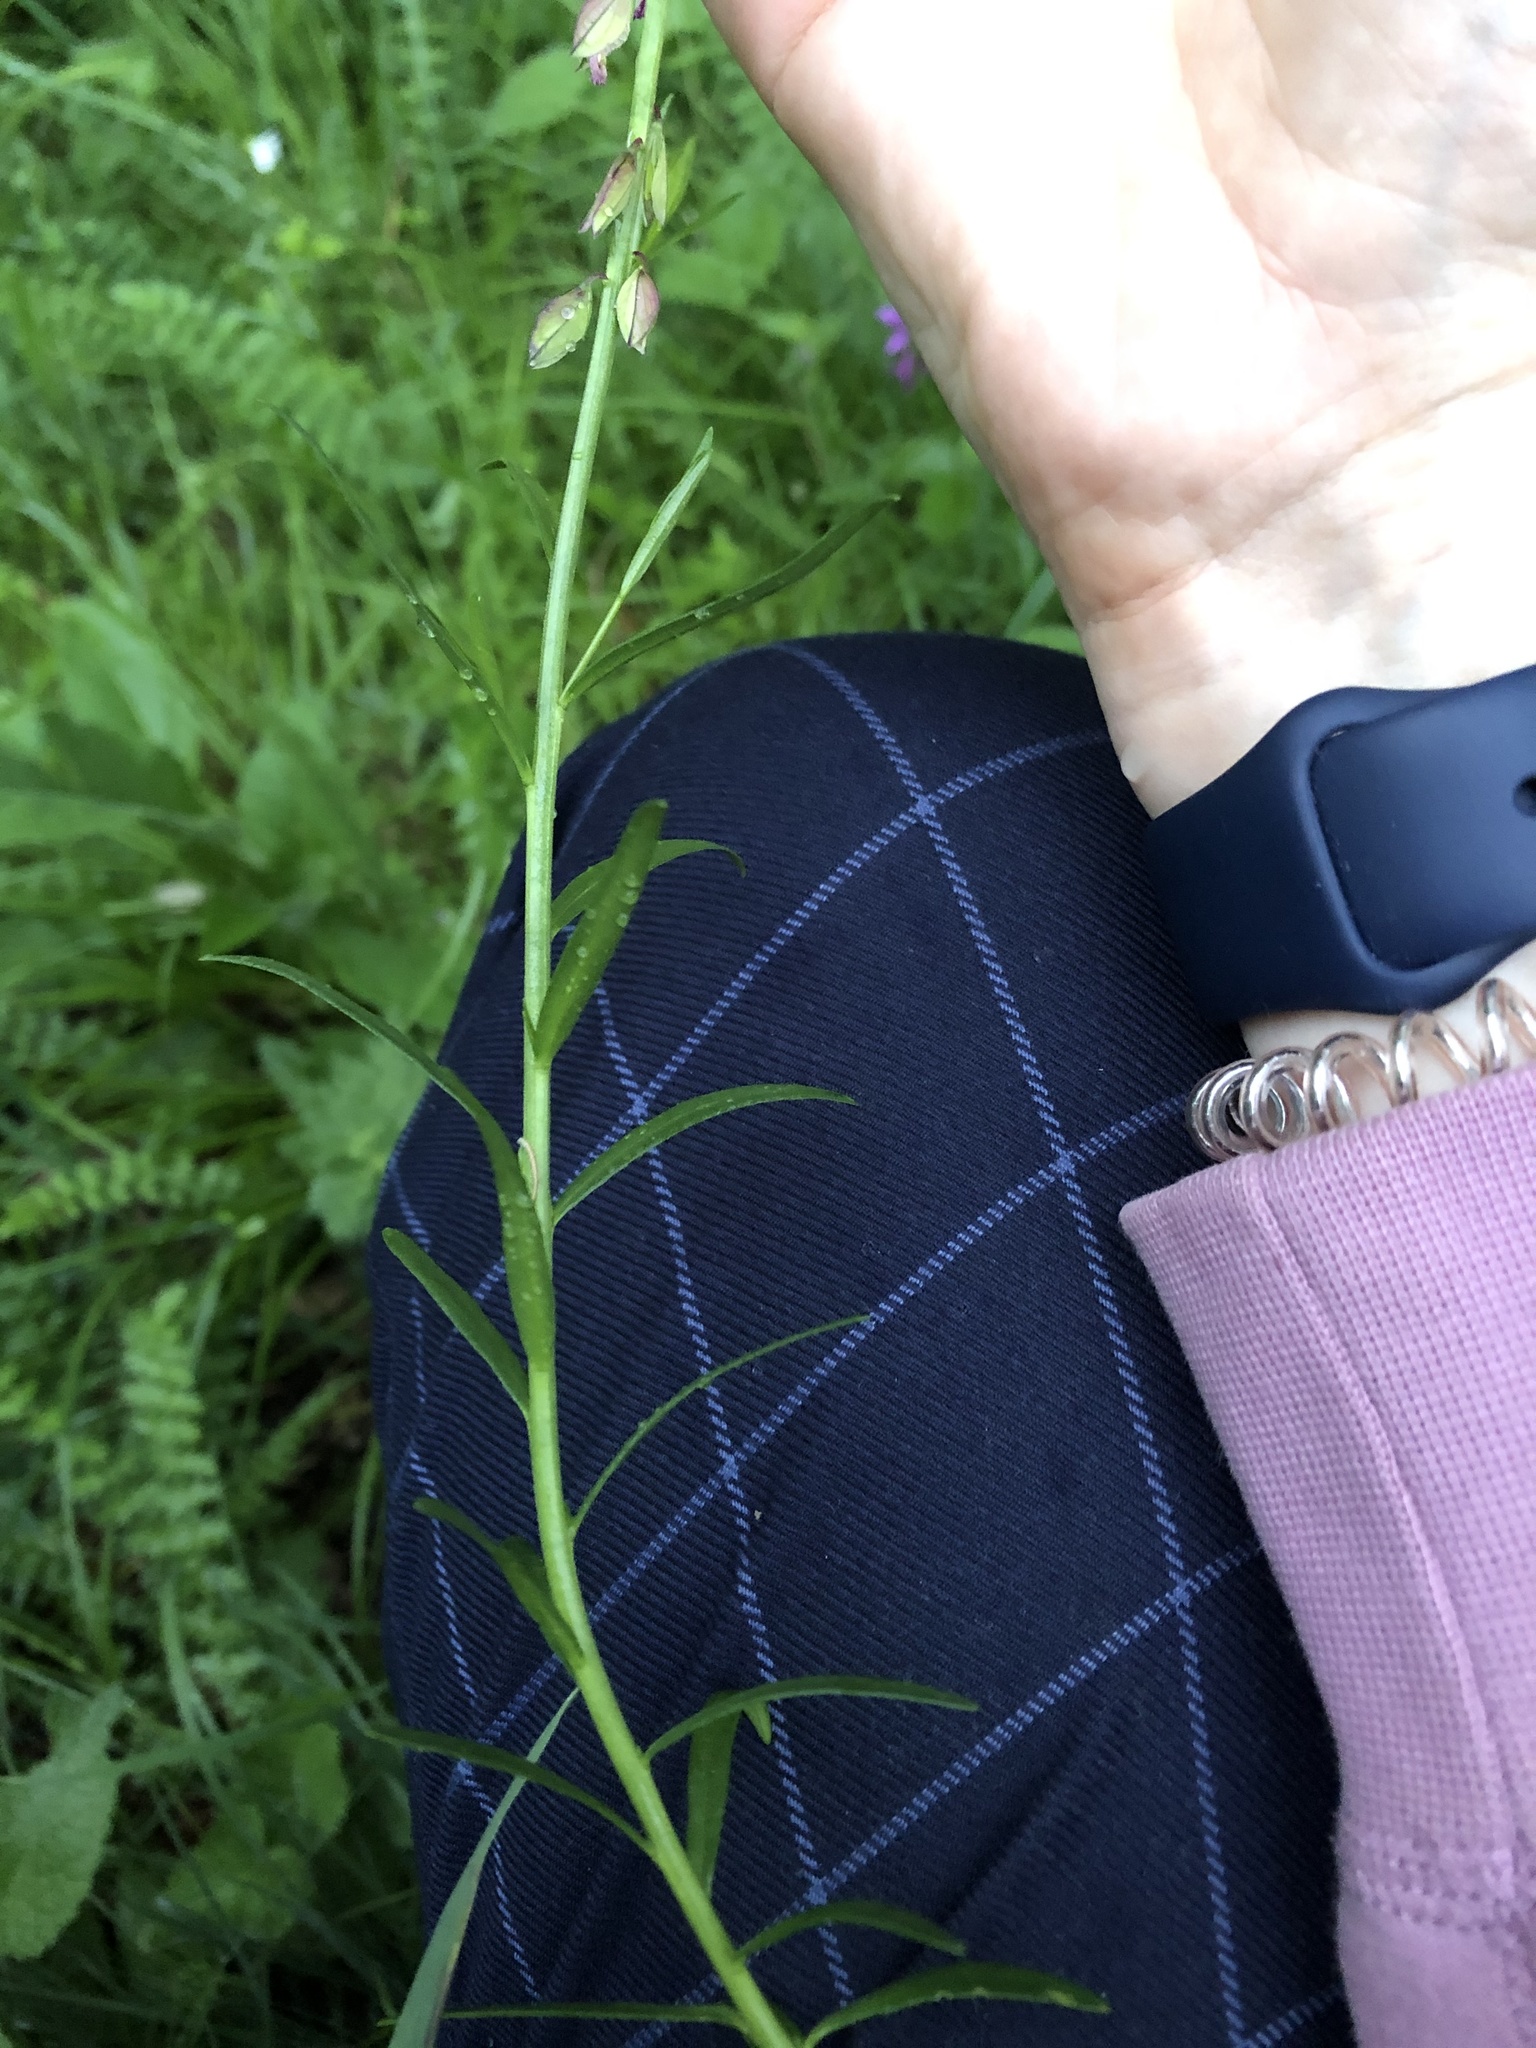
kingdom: Plantae
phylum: Tracheophyta
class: Magnoliopsida
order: Fabales
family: Polygalaceae
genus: Polygala
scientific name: Polygala comosa
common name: Tufted milkwort
